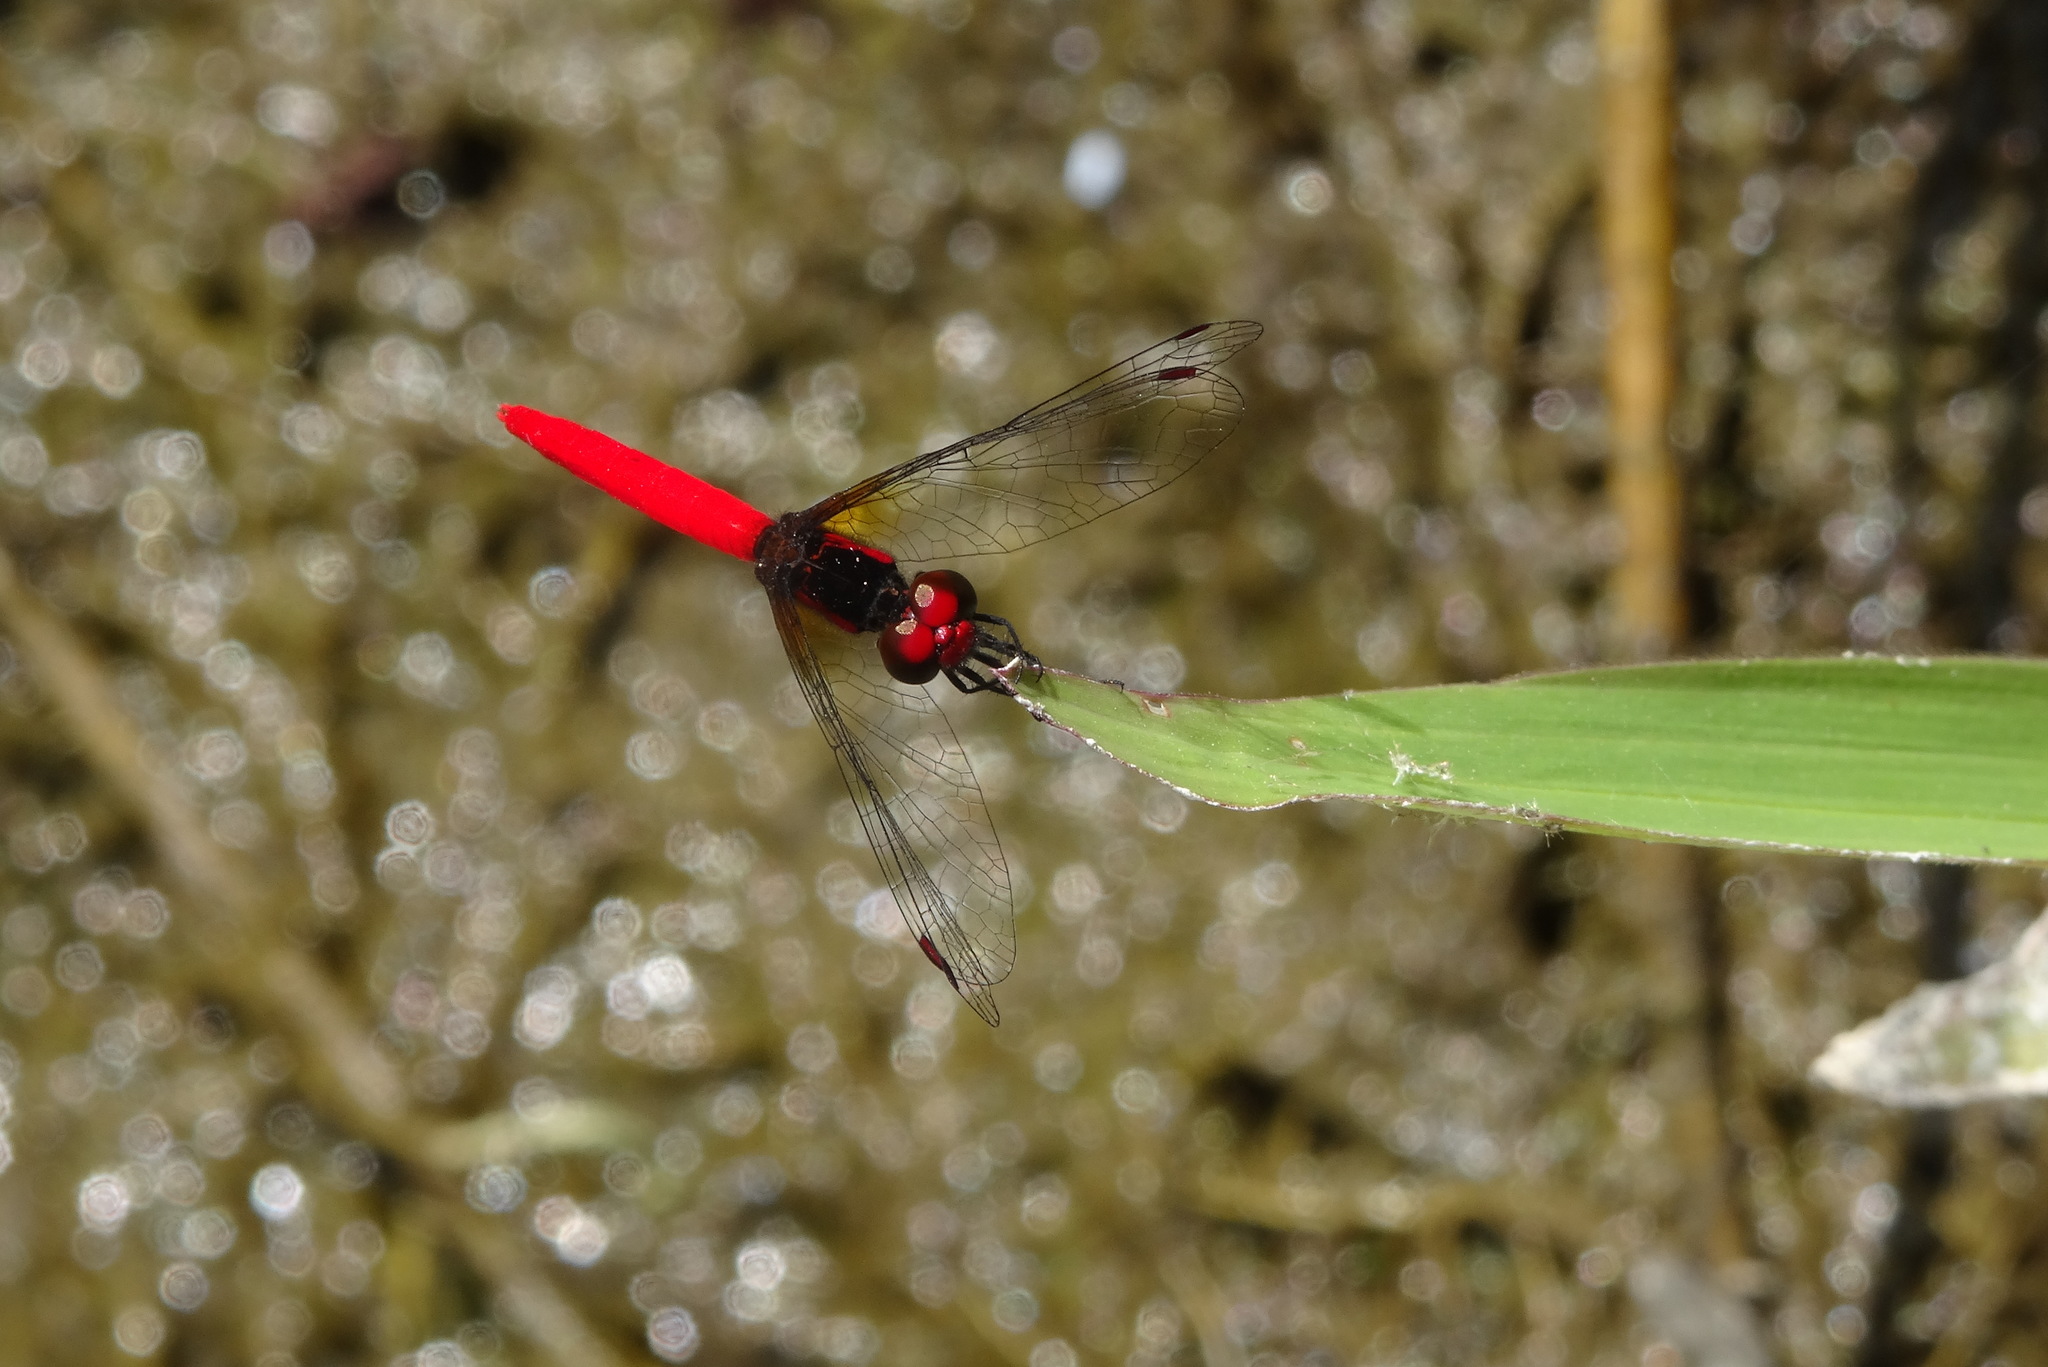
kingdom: Animalia
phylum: Arthropoda
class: Insecta
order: Odonata
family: Libellulidae
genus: Nannophya
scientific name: Nannophya pygmaea
